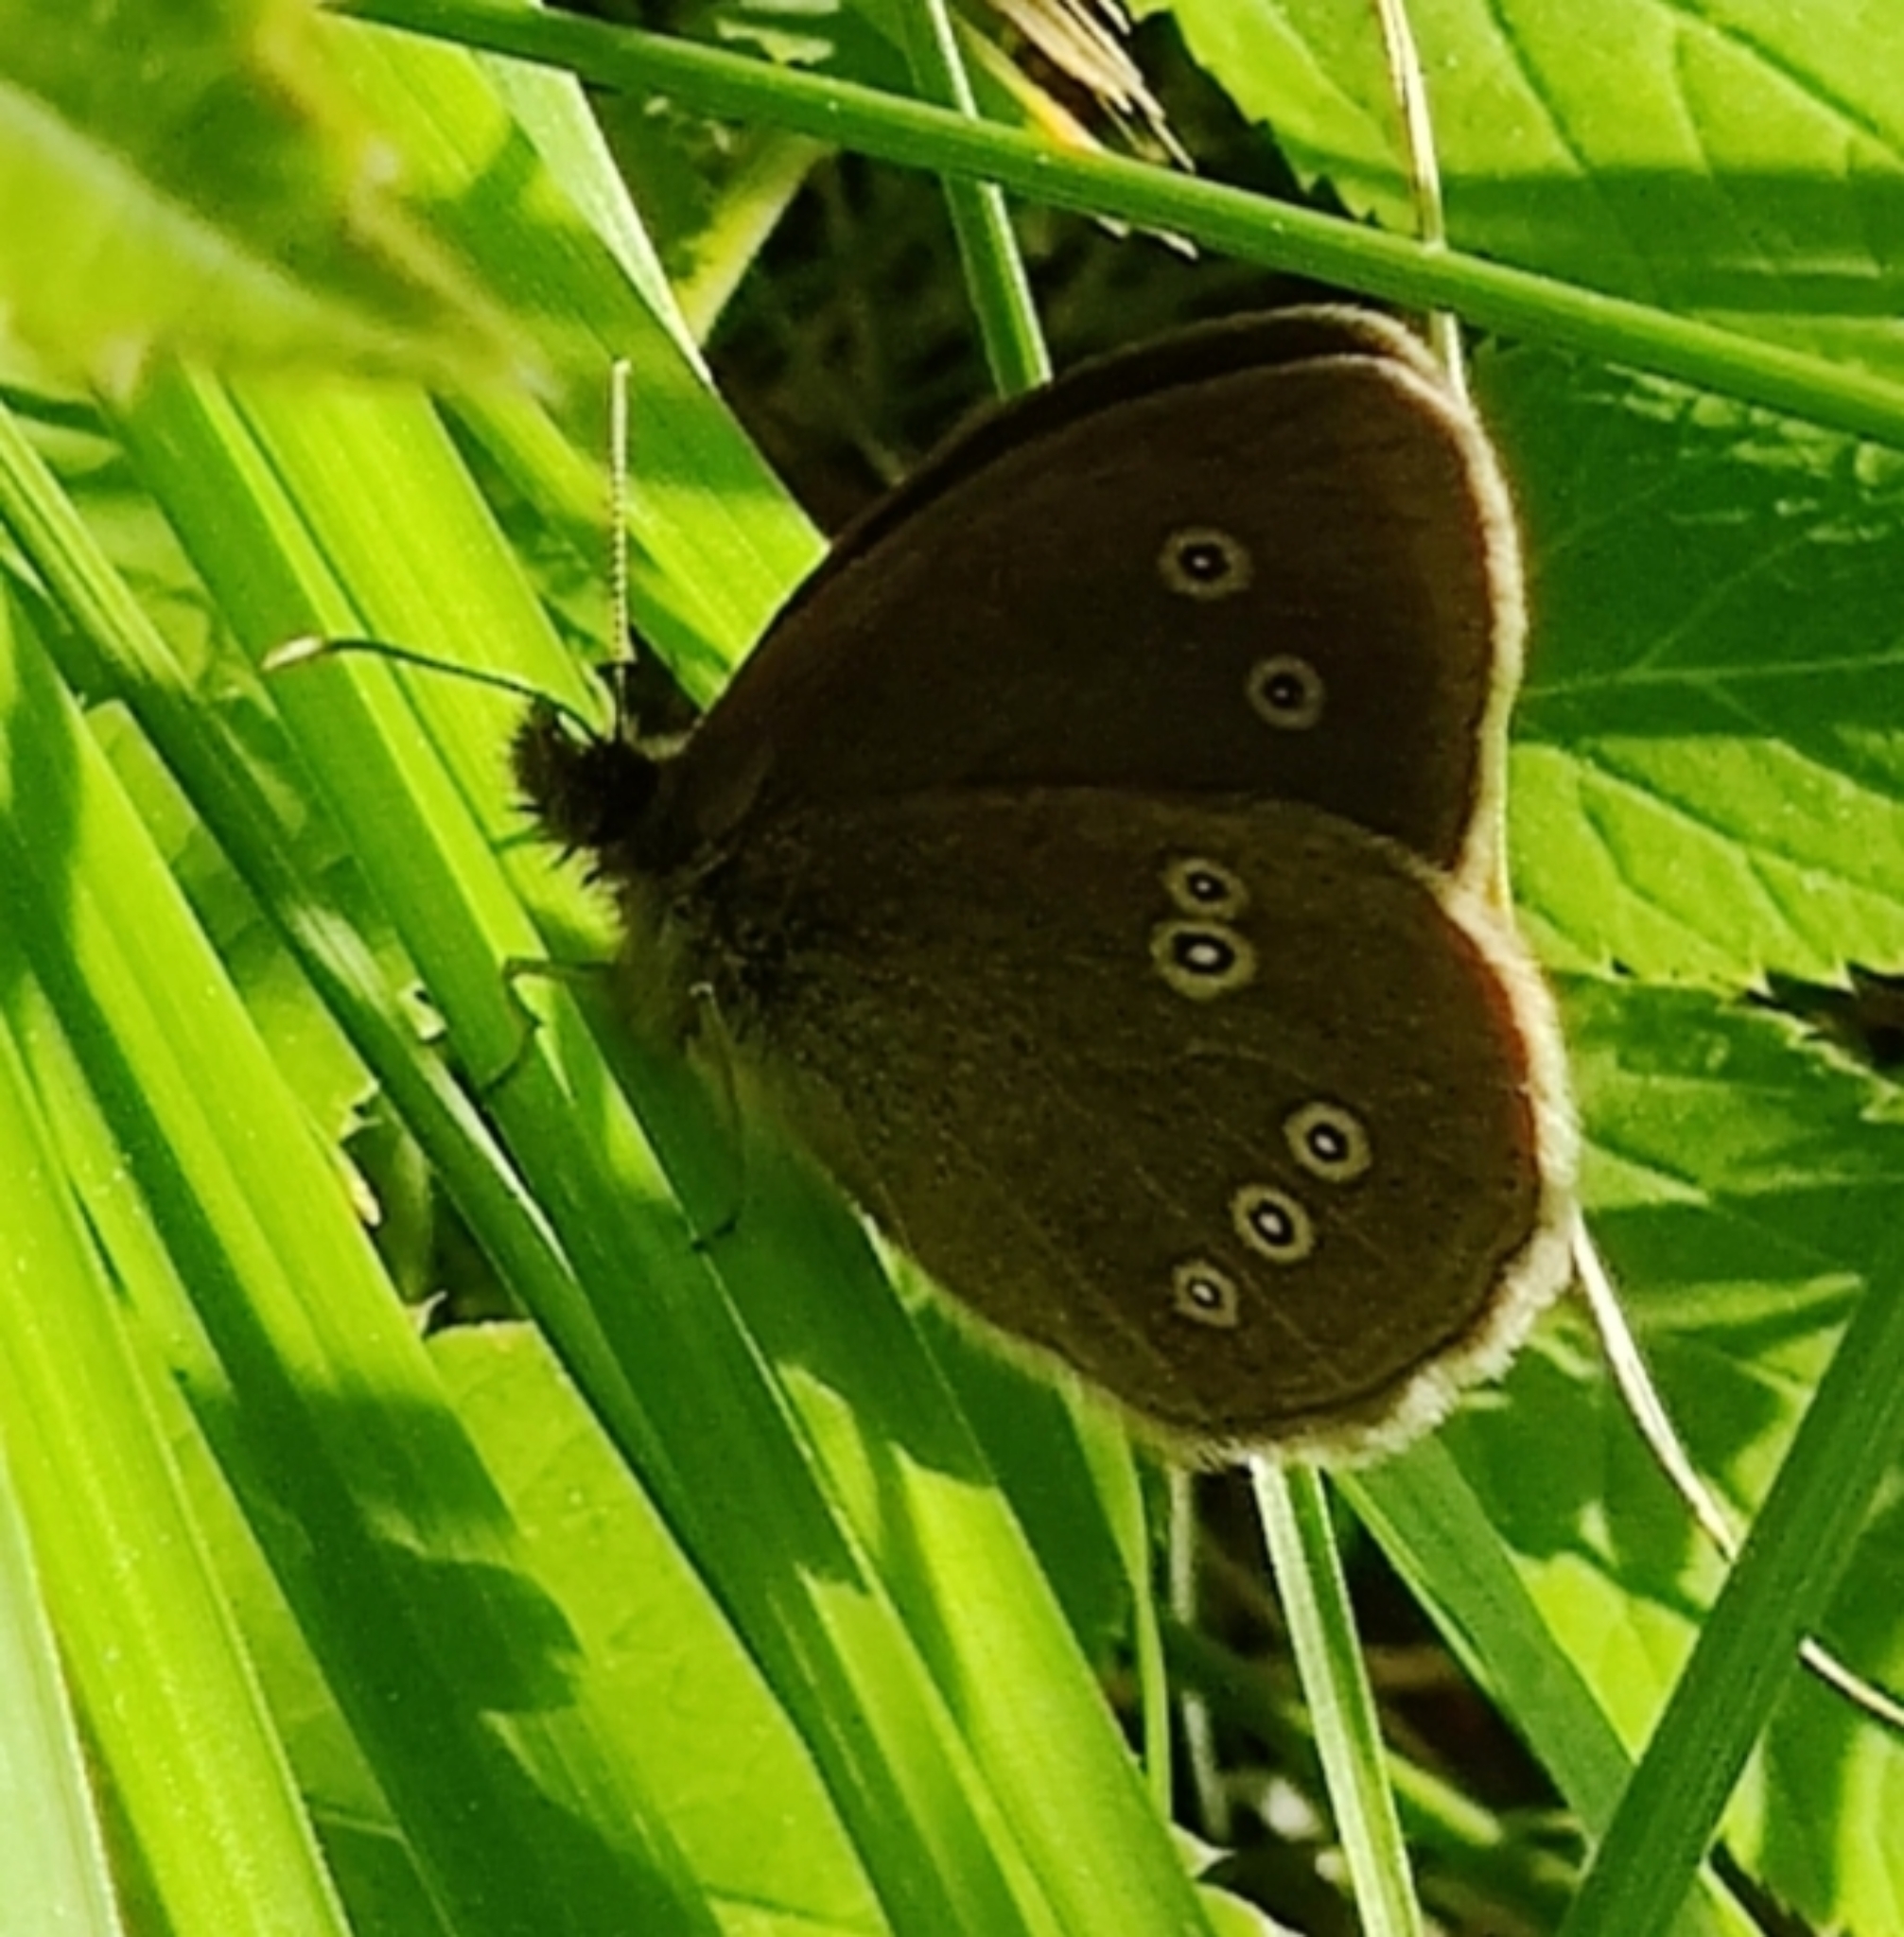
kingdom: Animalia
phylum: Arthropoda
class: Insecta
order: Lepidoptera
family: Nymphalidae
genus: Aphantopus
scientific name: Aphantopus hyperantus
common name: Ringlet
